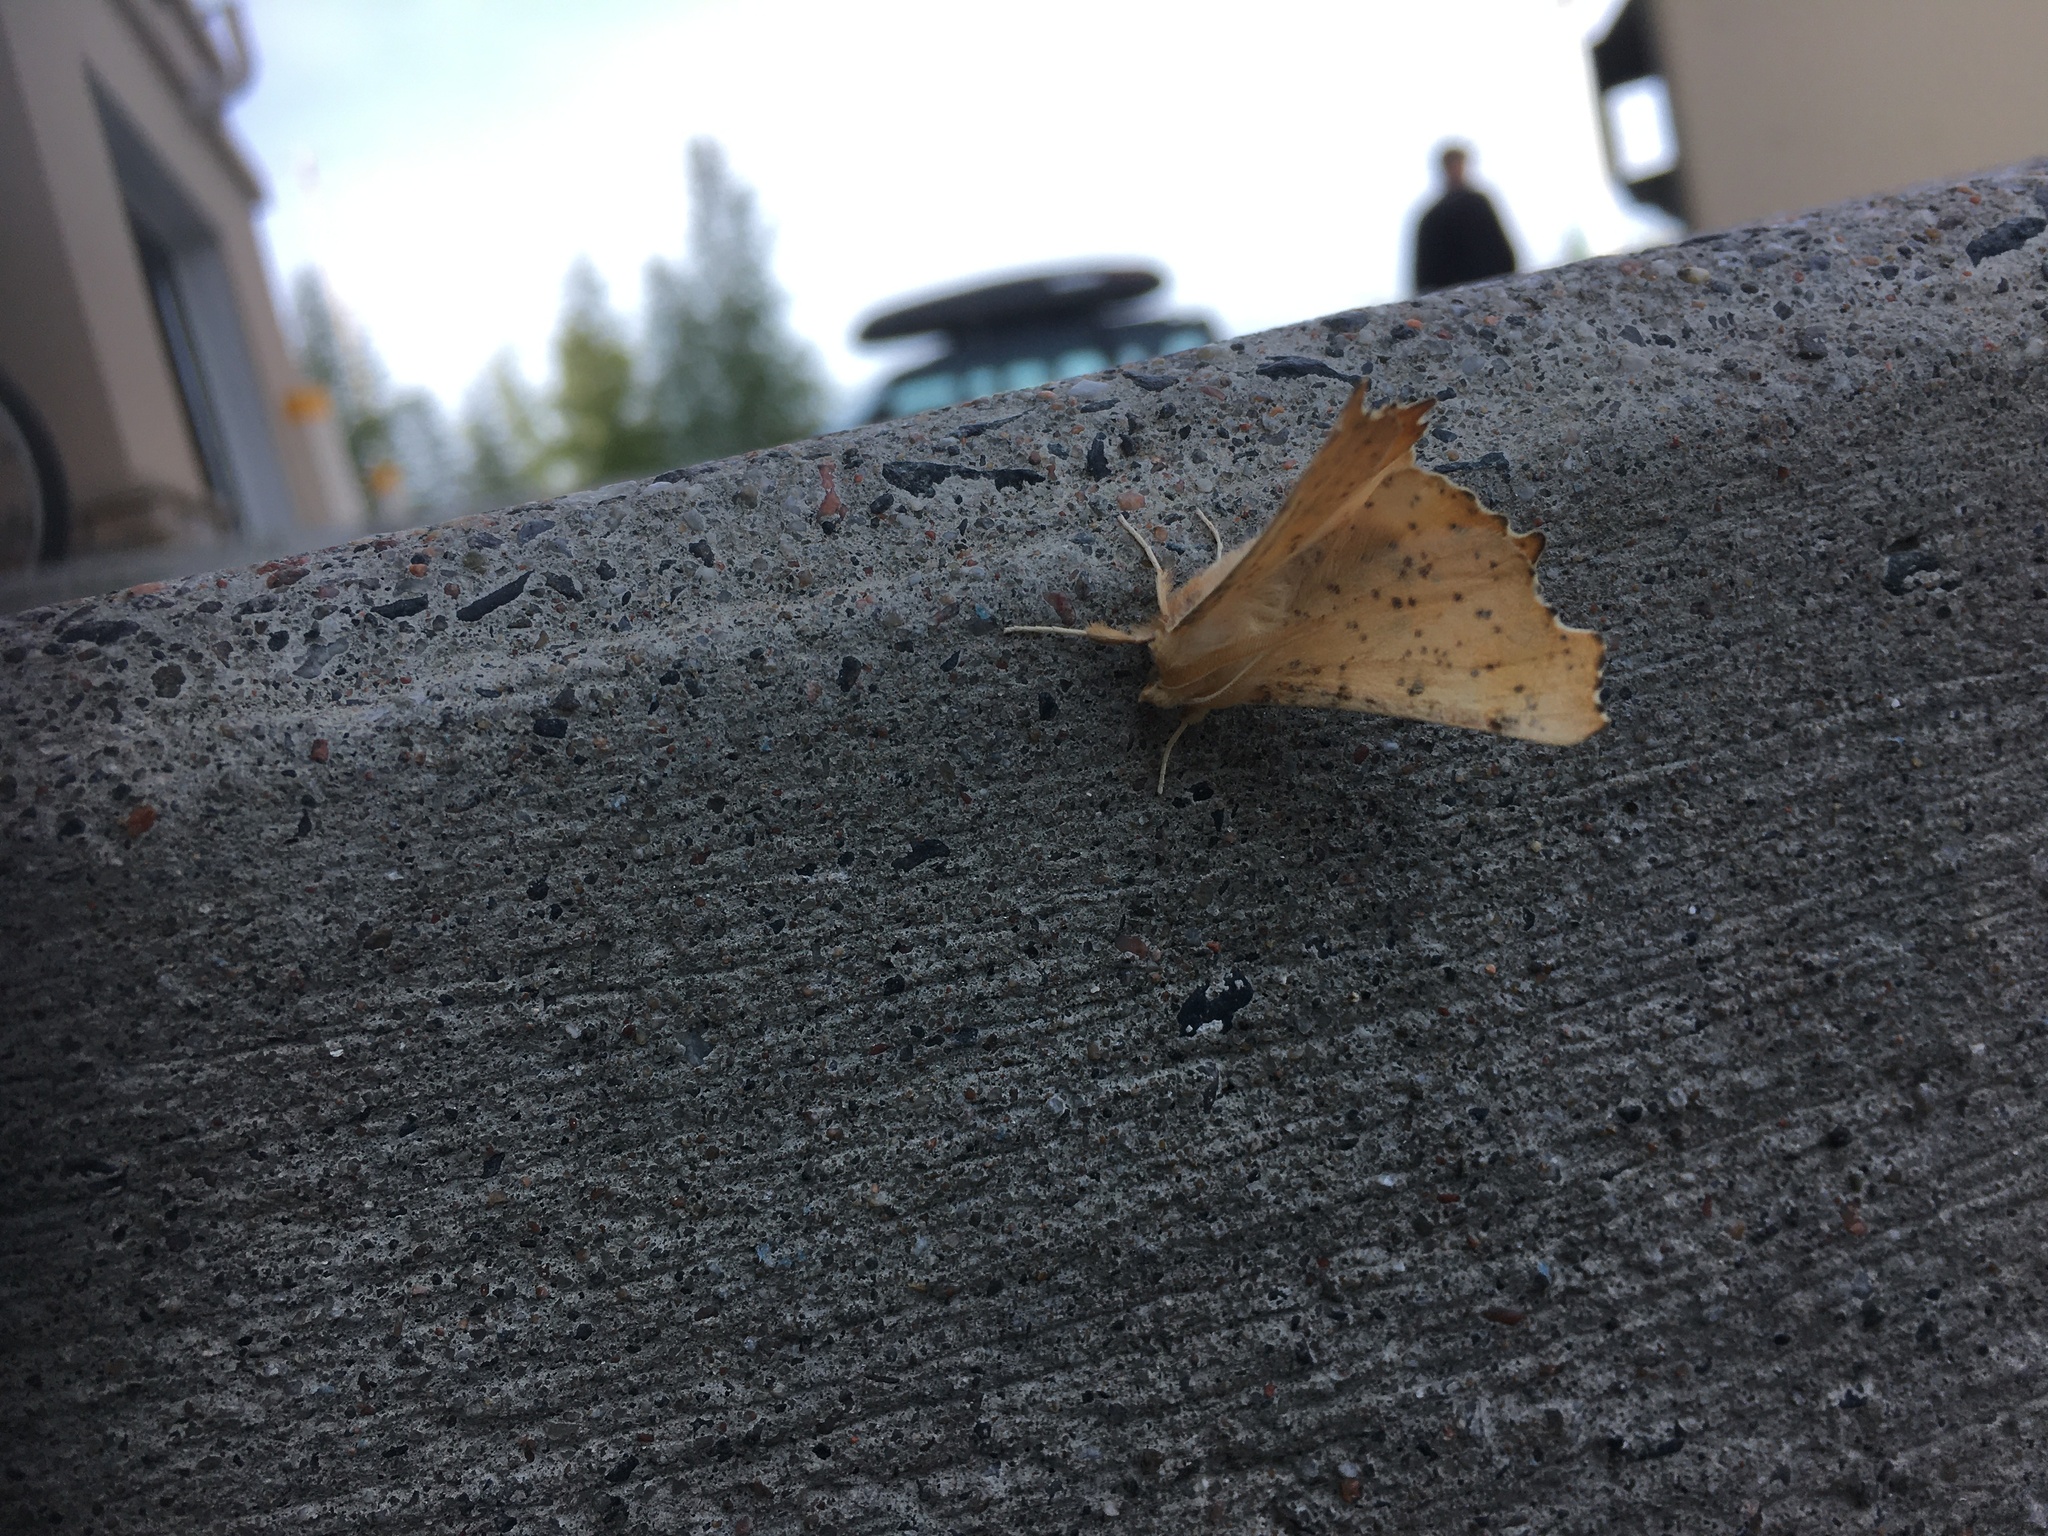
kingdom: Animalia
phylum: Arthropoda
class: Insecta
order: Lepidoptera
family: Geometridae
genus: Ennomos
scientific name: Ennomos magnaria
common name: Maple spanworm
